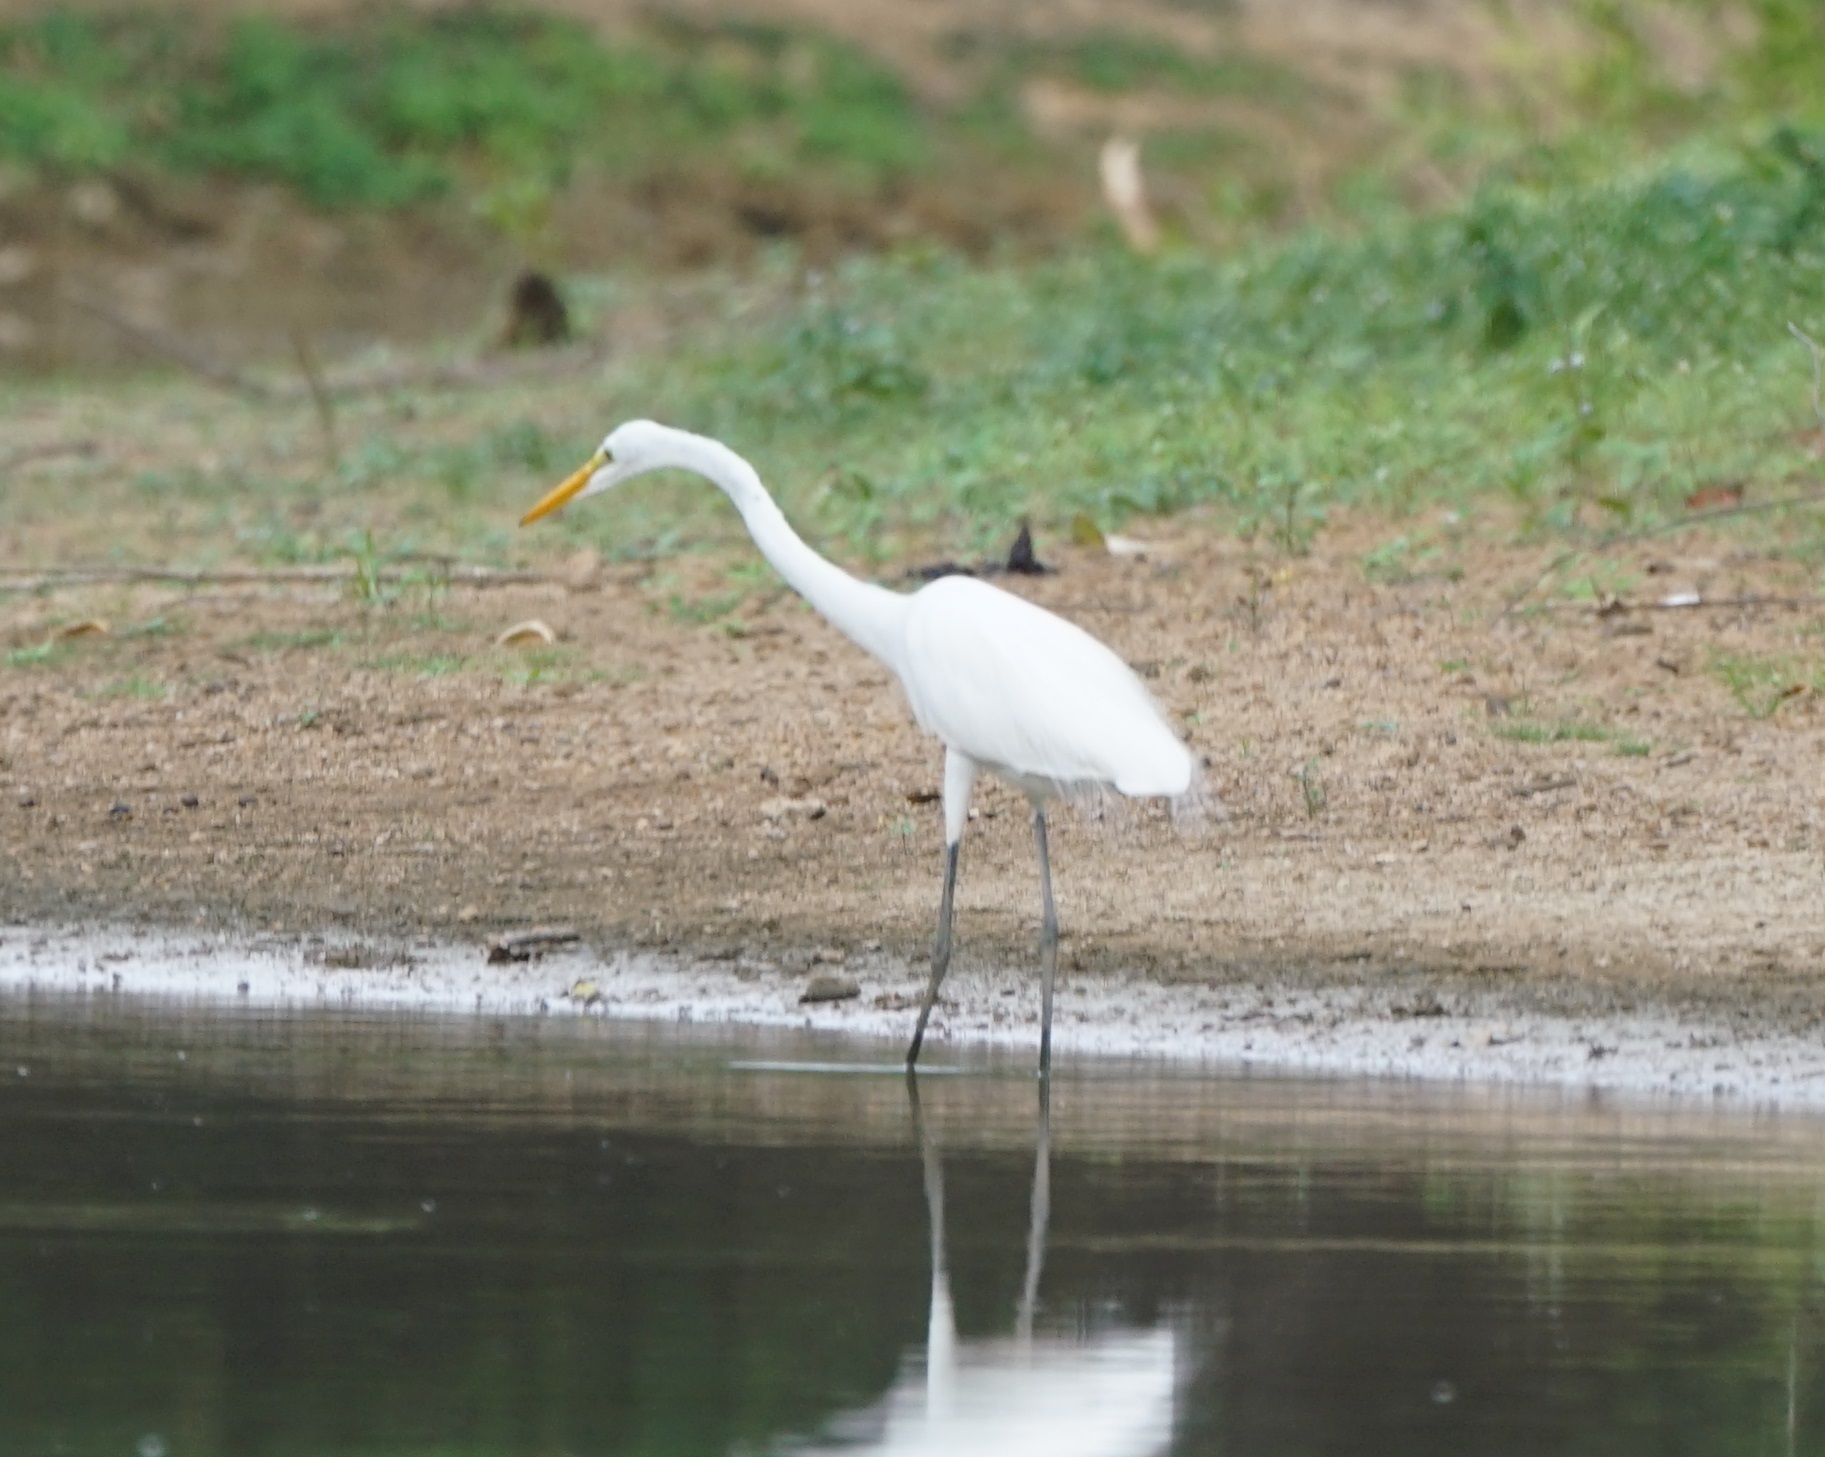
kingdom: Animalia
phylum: Chordata
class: Aves
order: Pelecaniformes
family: Ardeidae
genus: Ardea
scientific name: Ardea alba
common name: Great egret
